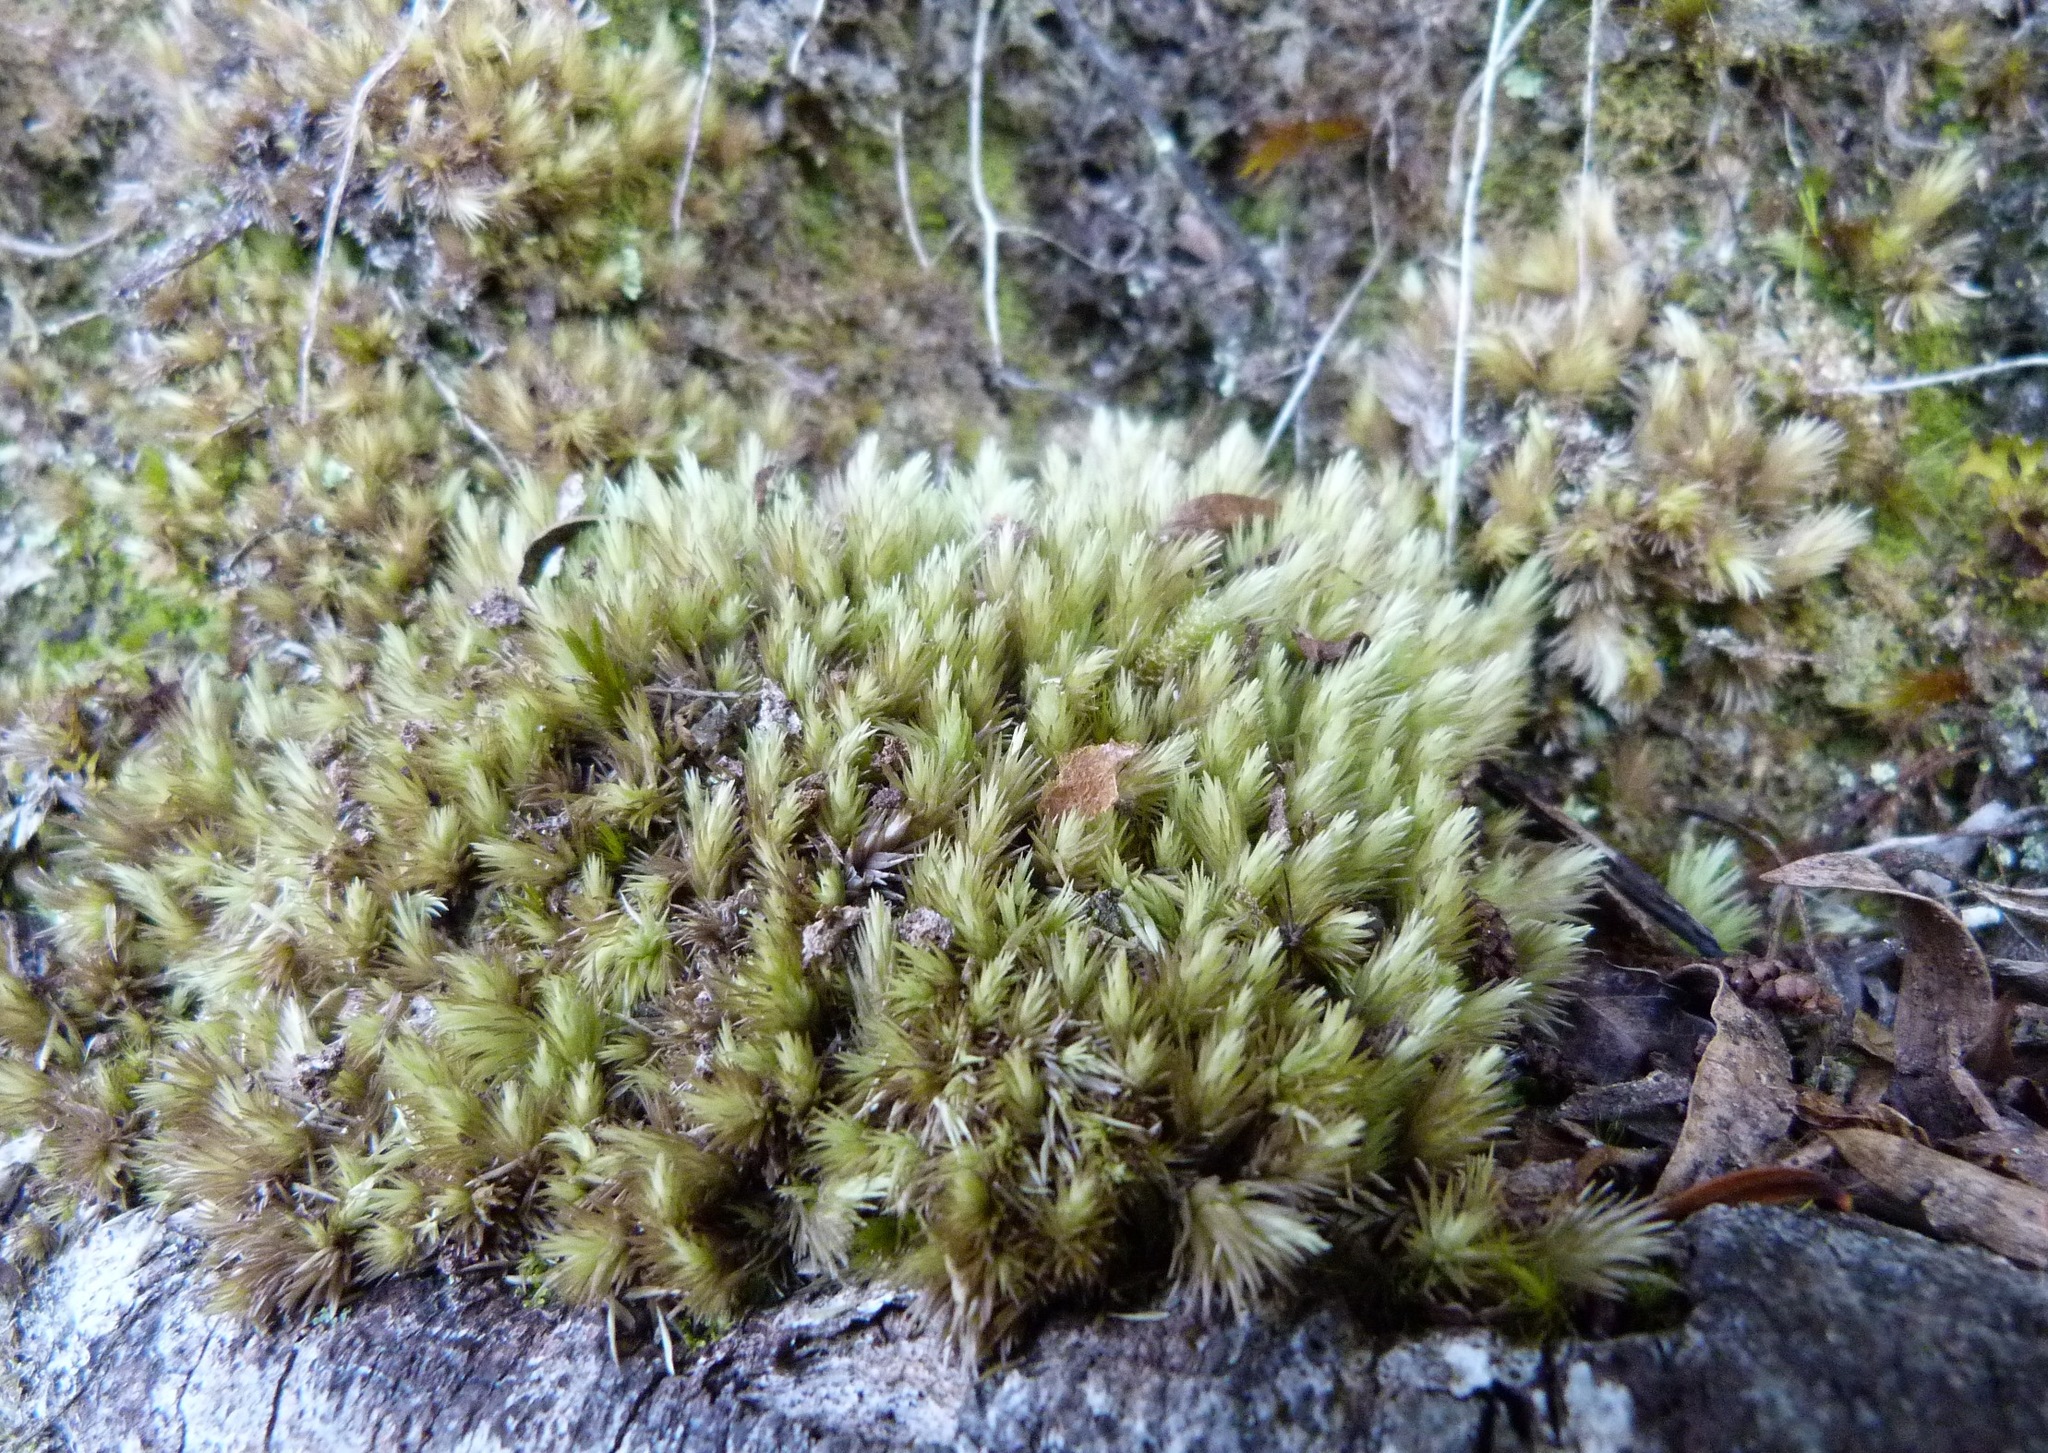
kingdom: Plantae
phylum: Bryophyta
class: Bryopsida
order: Dicranales
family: Leucobryaceae
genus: Leucobryum
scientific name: Leucobryum javense
